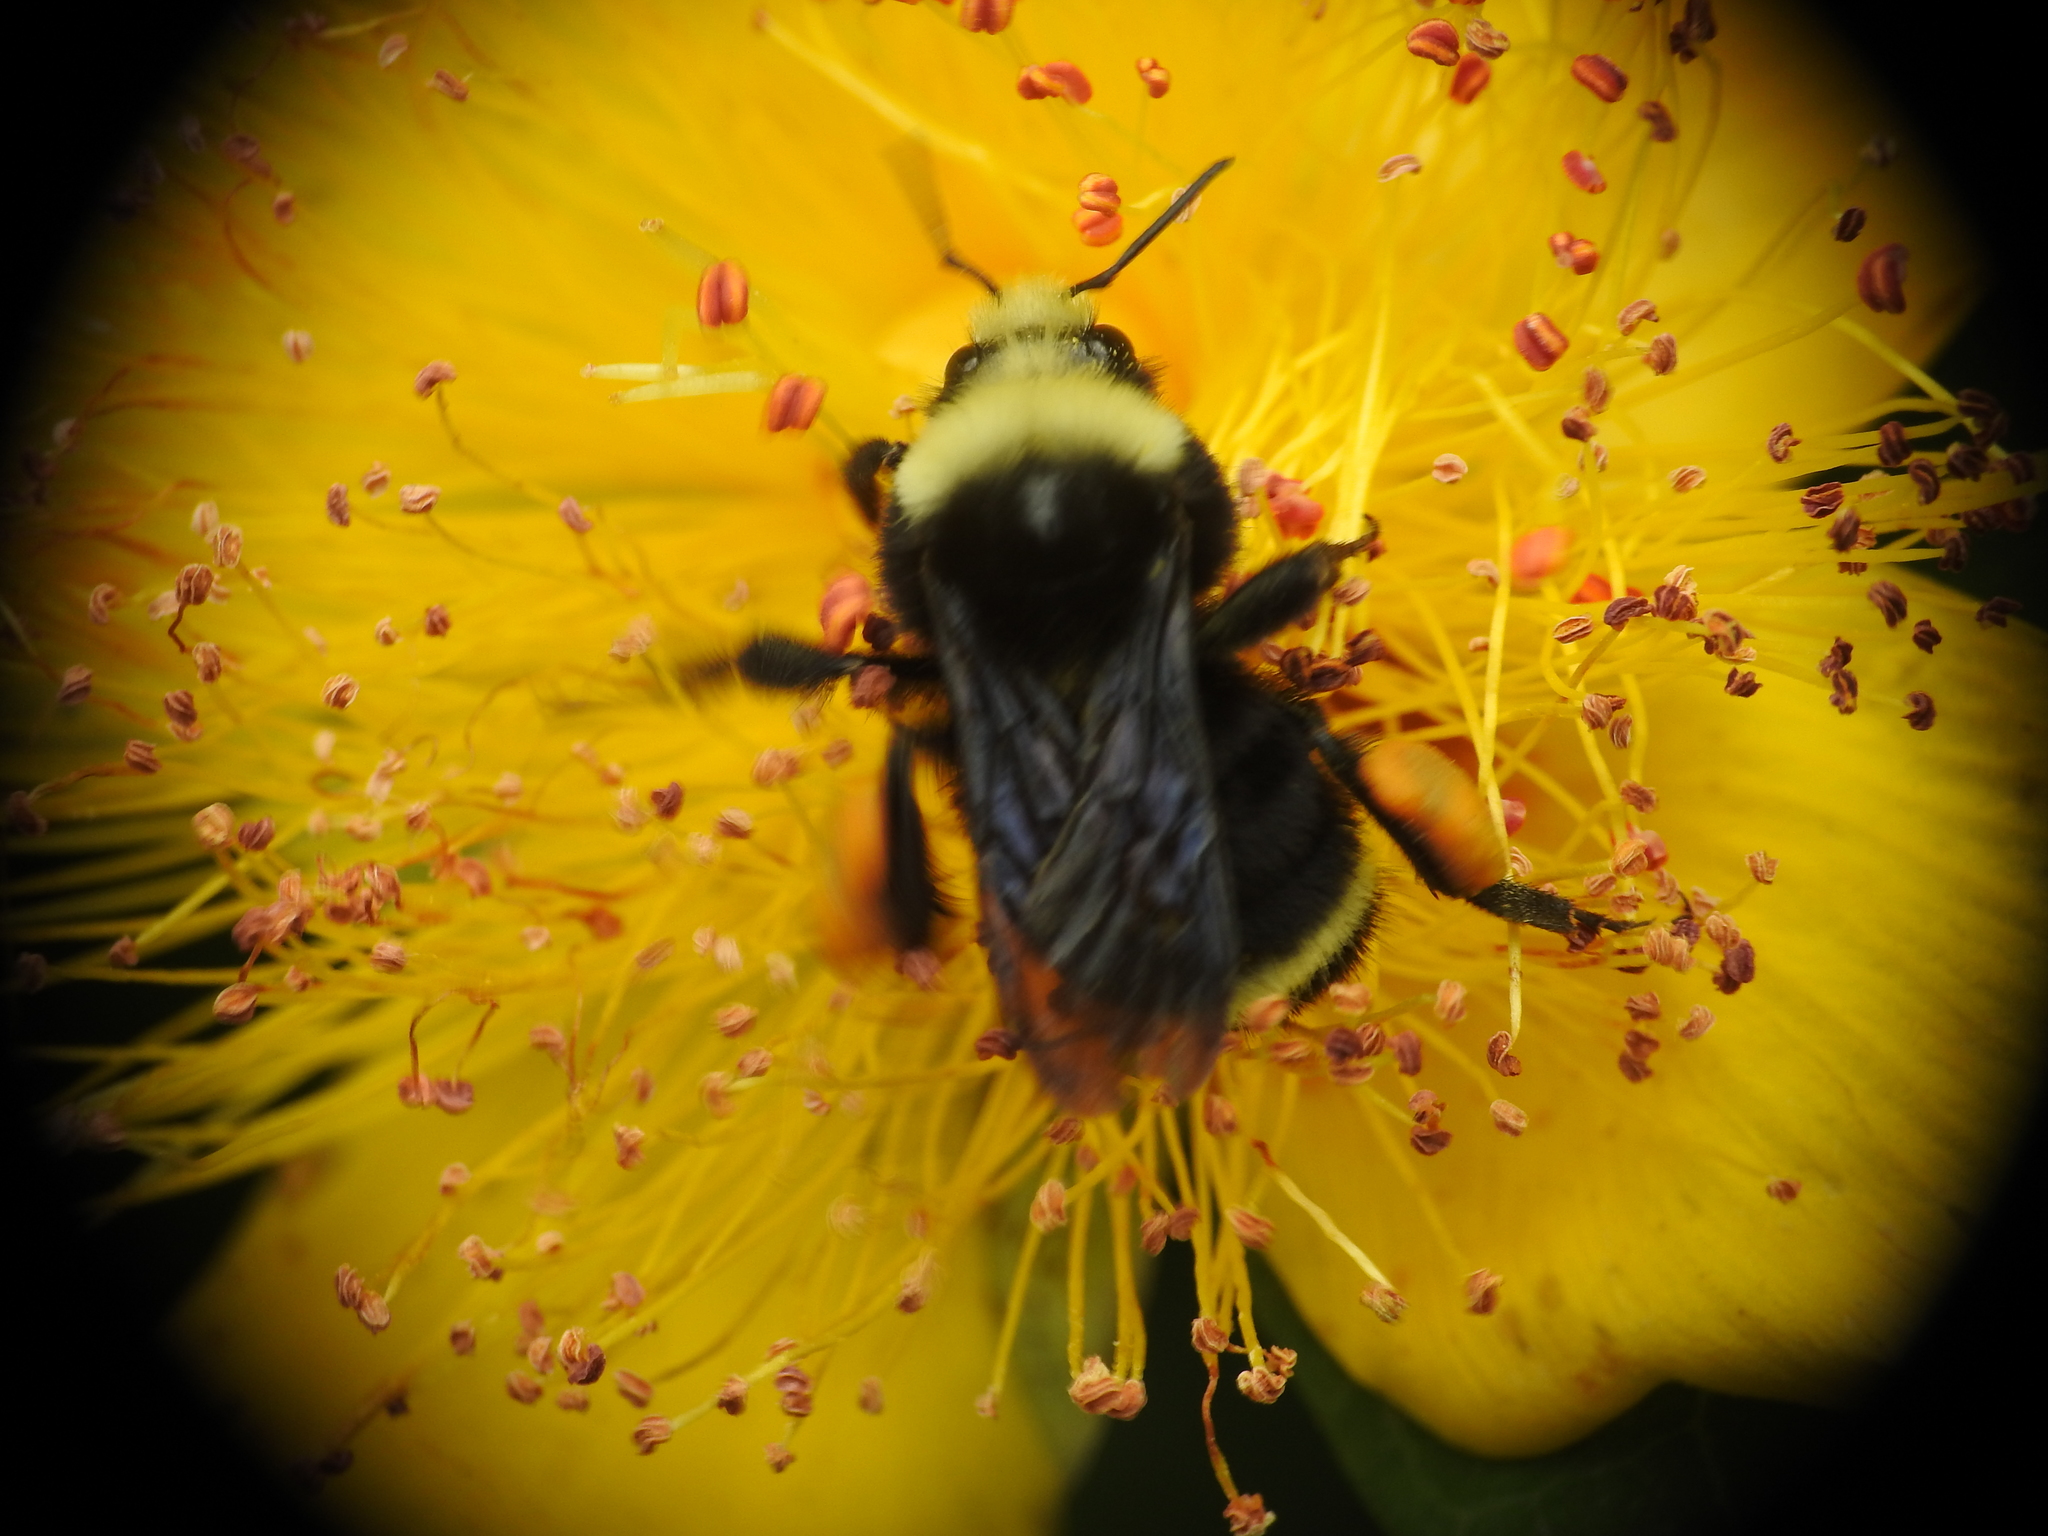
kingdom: Animalia
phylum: Arthropoda
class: Insecta
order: Hymenoptera
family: Apidae
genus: Bombus
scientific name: Bombus vosnesenskii
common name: Vosnesensky bumble bee
